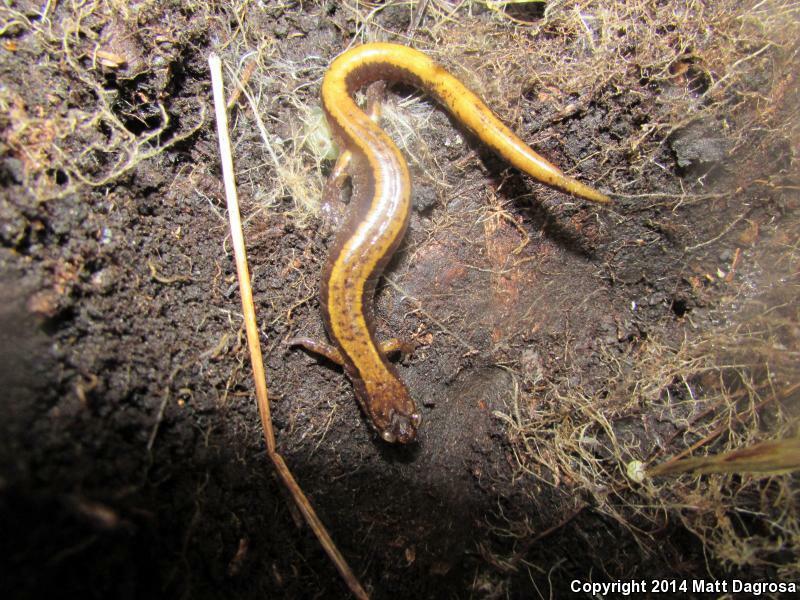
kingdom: Animalia
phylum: Chordata
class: Amphibia
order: Caudata
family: Plethodontidae
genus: Plethodon
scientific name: Plethodon vehiculum
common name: Western red-backed salamander
